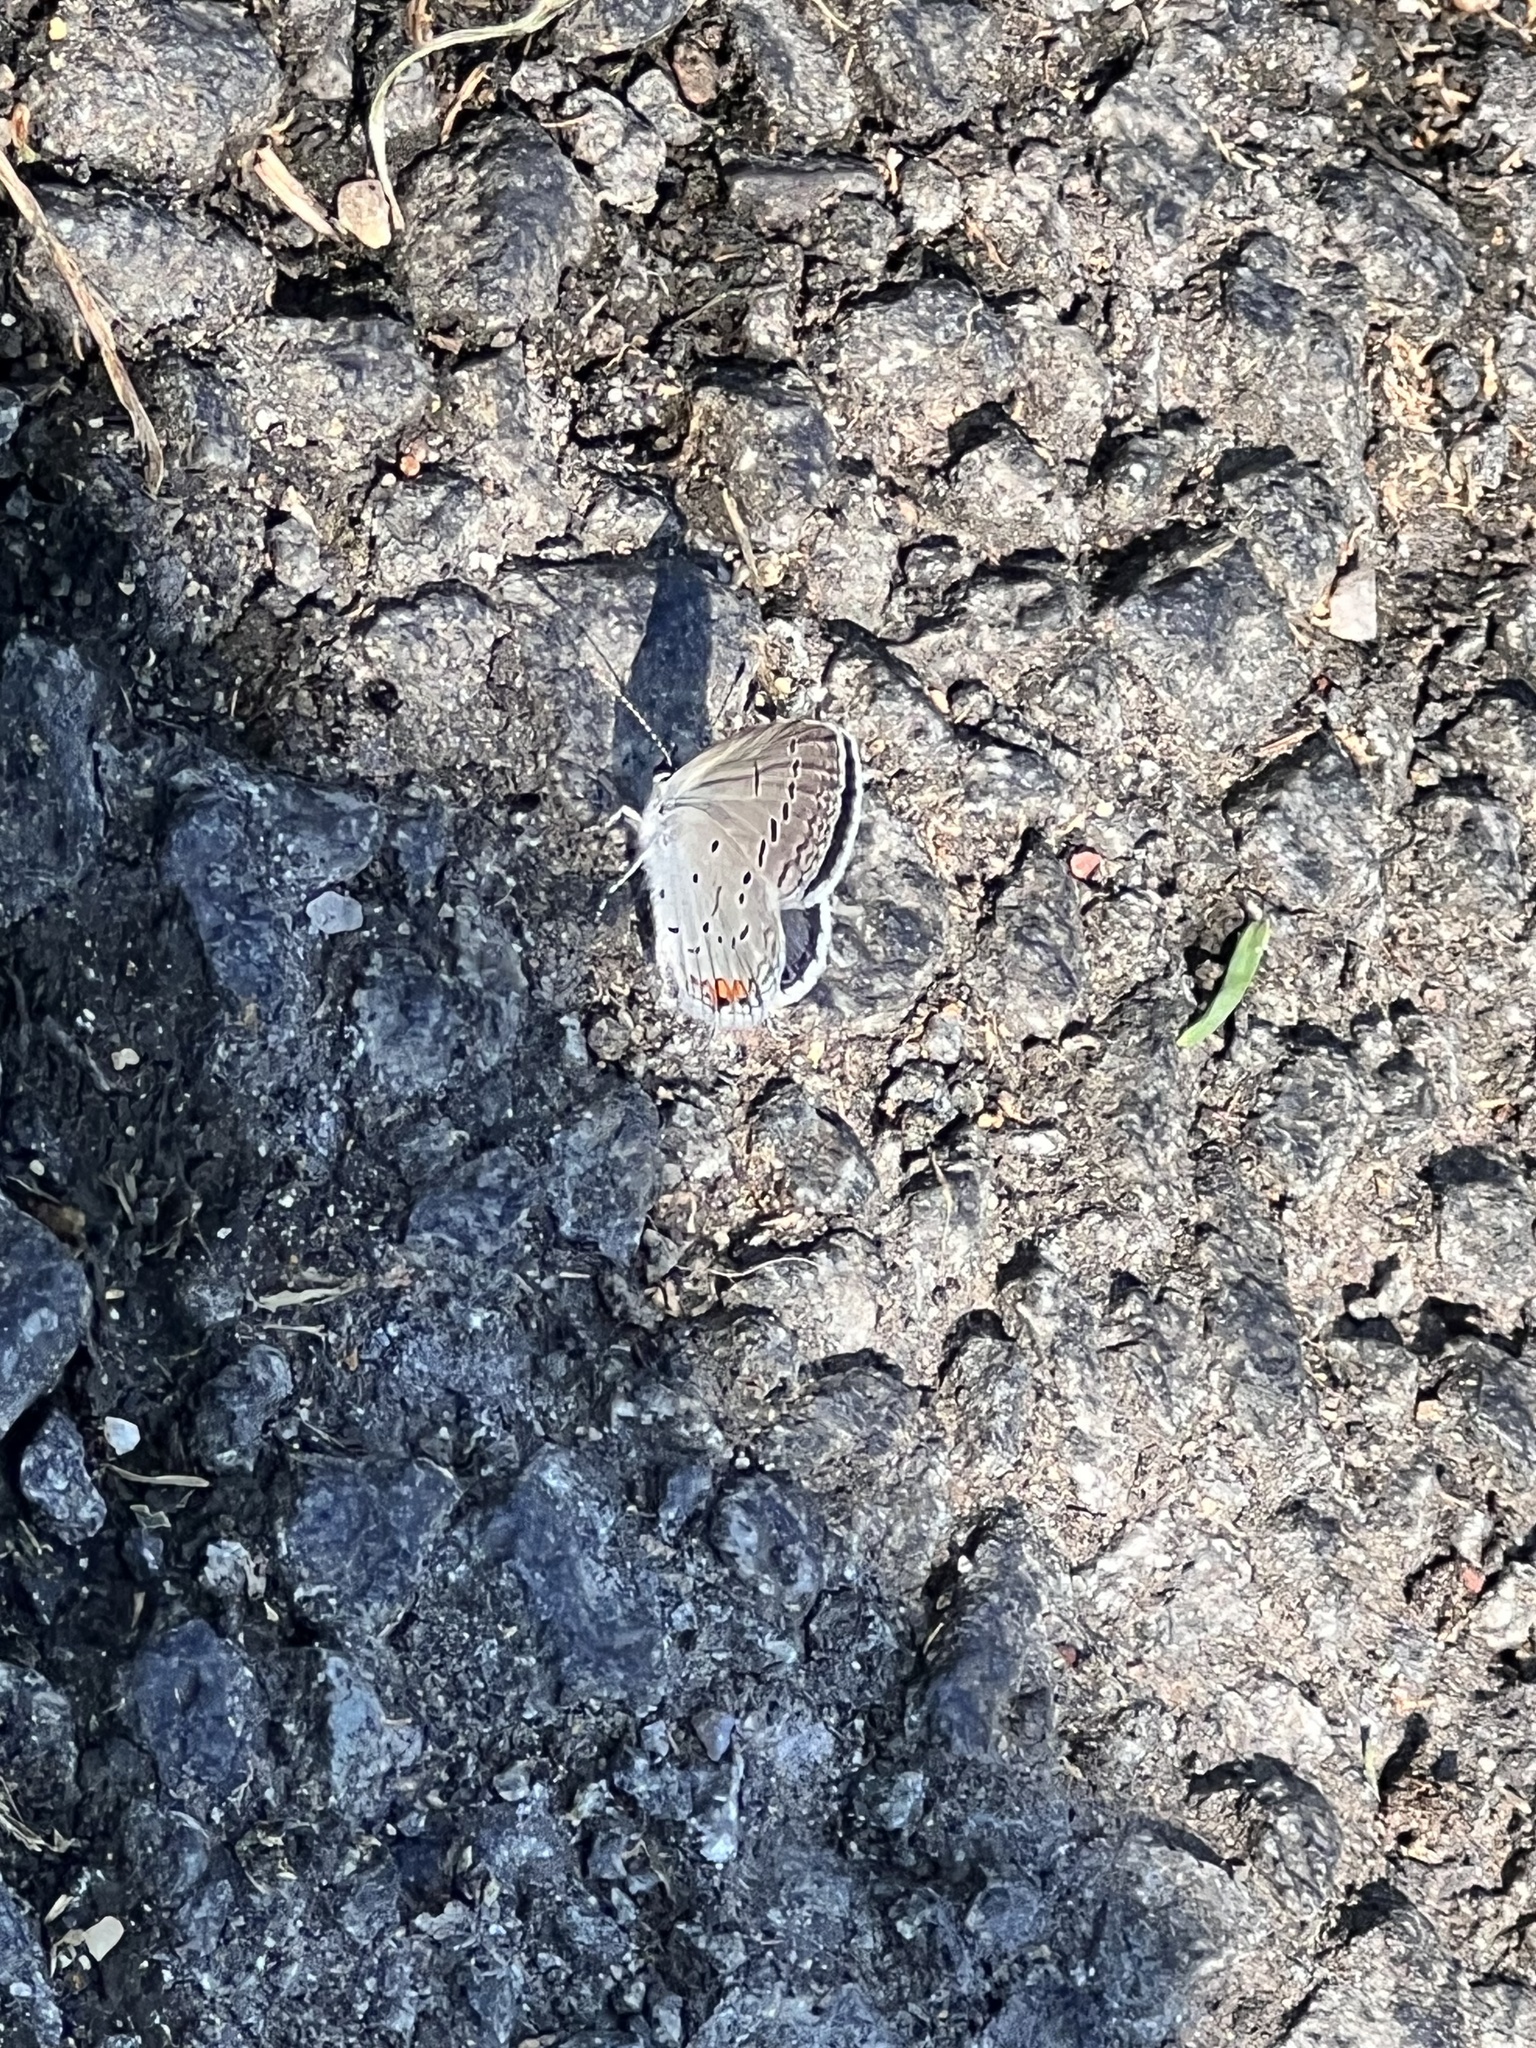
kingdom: Animalia
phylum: Arthropoda
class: Insecta
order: Lepidoptera
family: Lycaenidae
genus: Elkalyce
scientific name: Elkalyce comyntas
